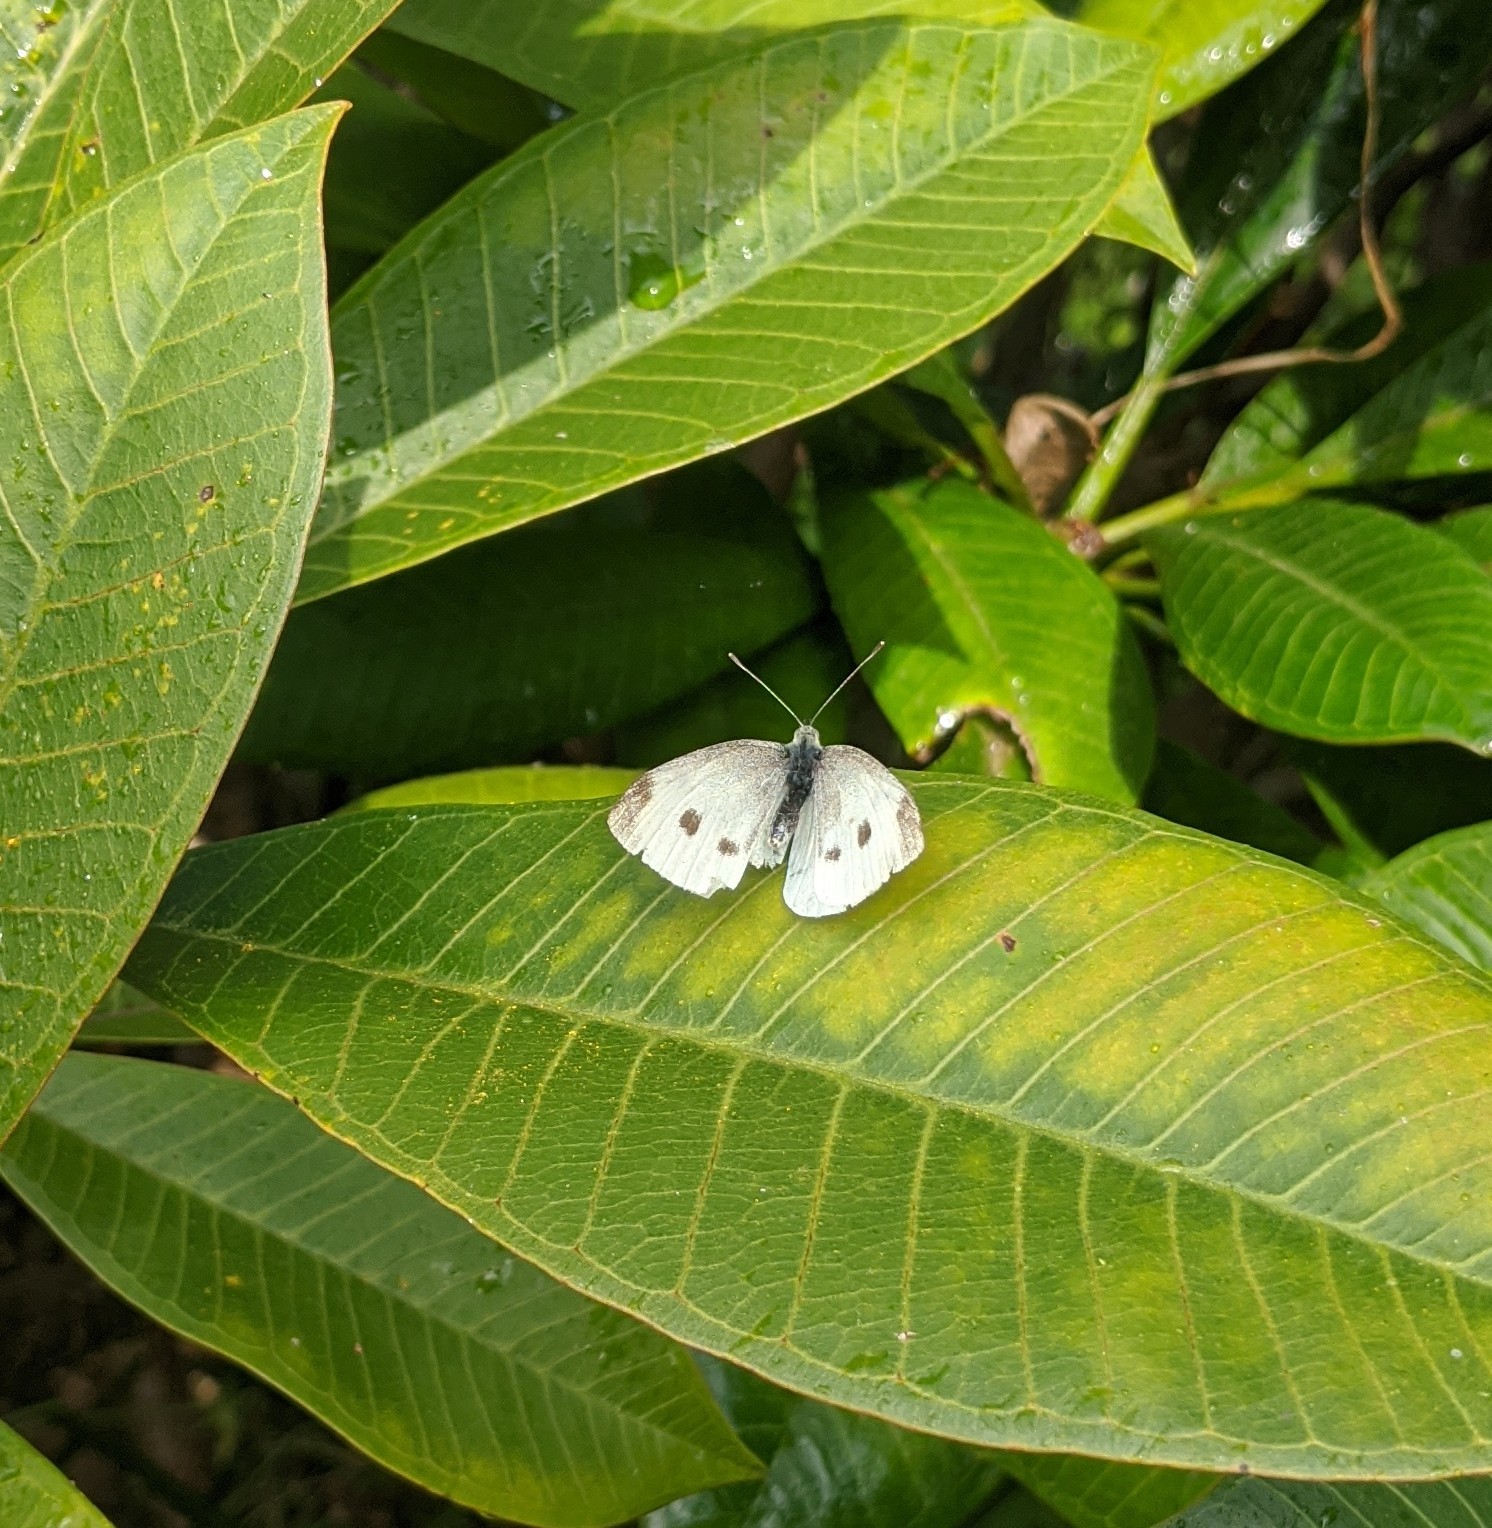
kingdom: Animalia
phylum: Arthropoda
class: Insecta
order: Lepidoptera
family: Pieridae
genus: Pieris
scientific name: Pieris rapae
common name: Small white
